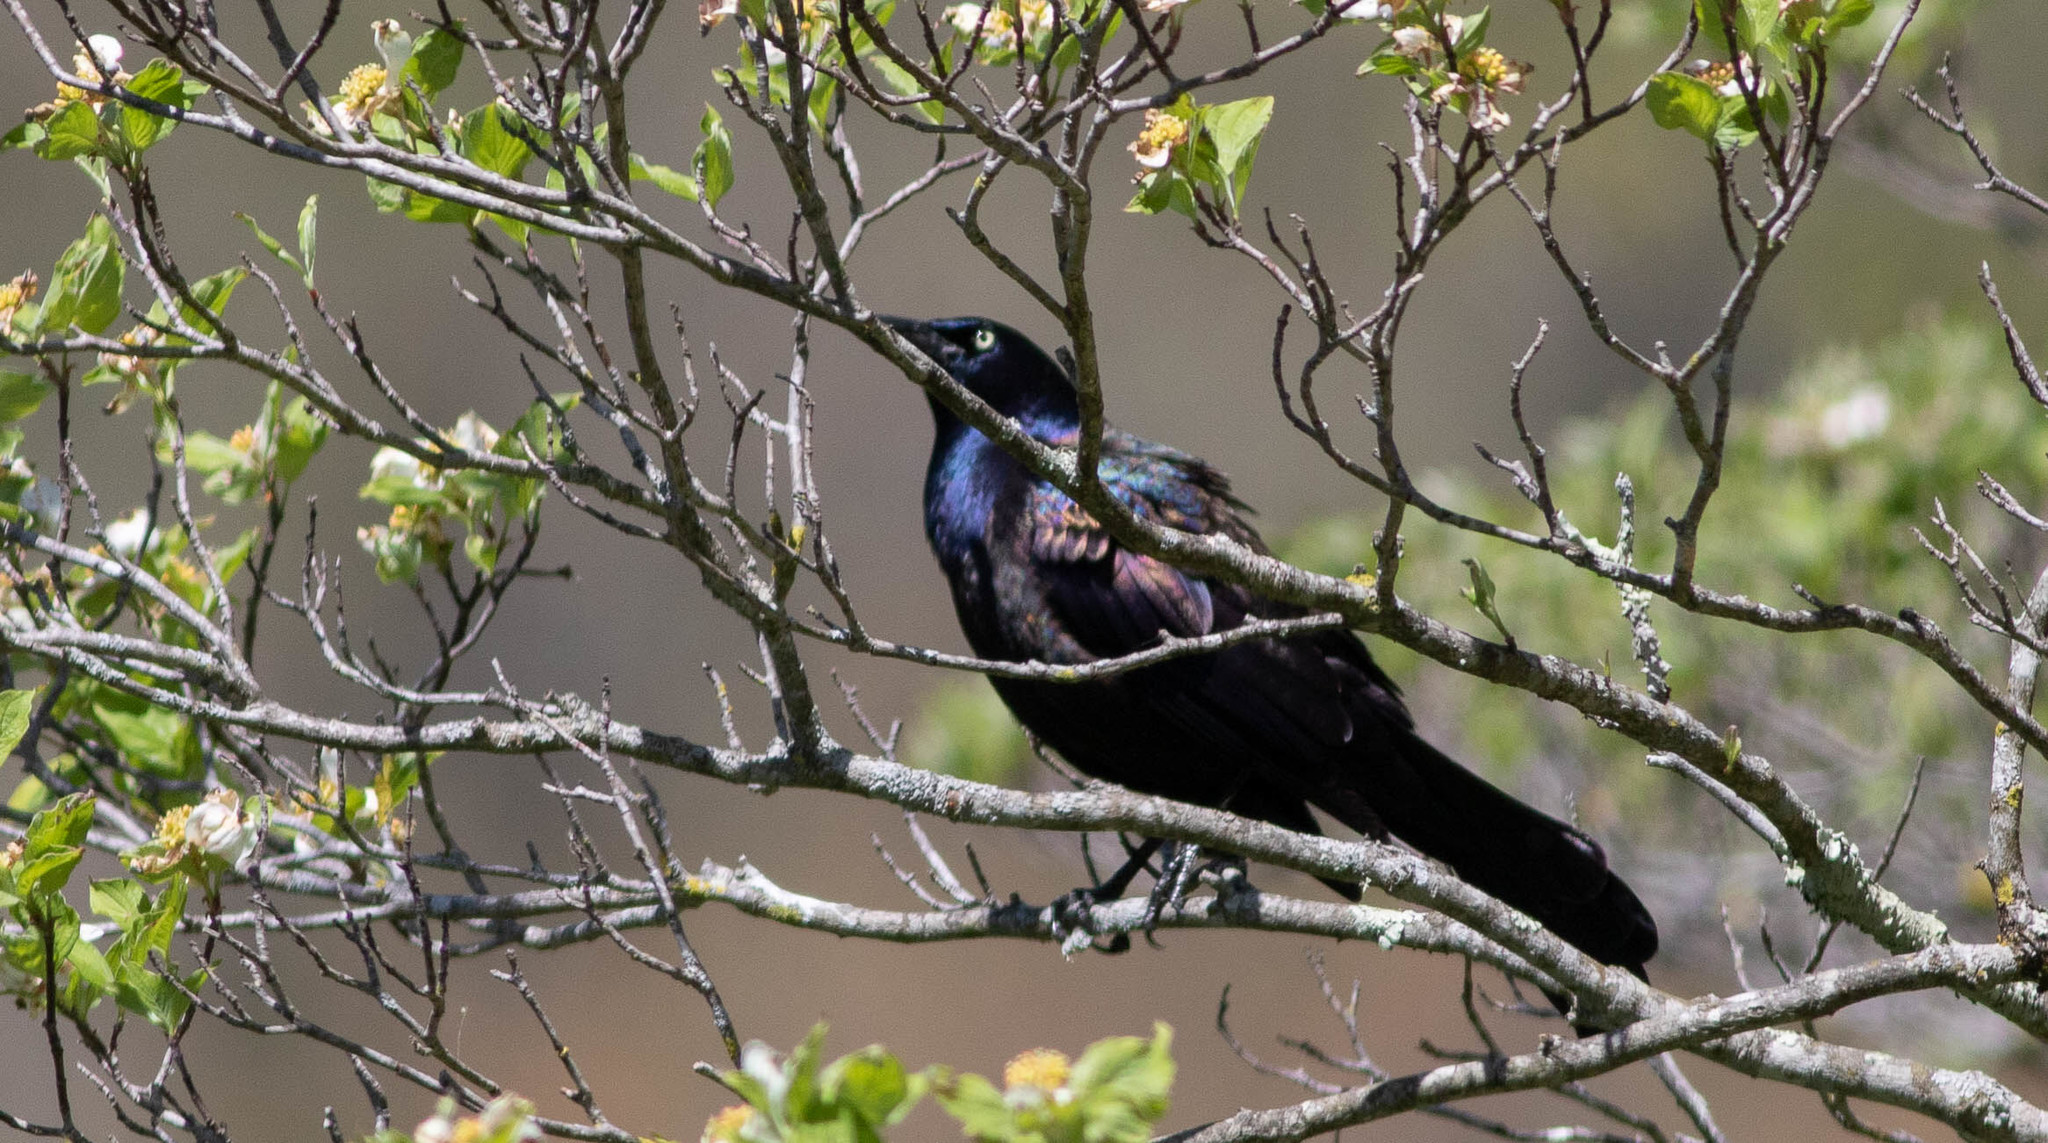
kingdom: Animalia
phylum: Chordata
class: Aves
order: Passeriformes
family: Icteridae
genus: Quiscalus
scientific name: Quiscalus quiscula
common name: Common grackle
